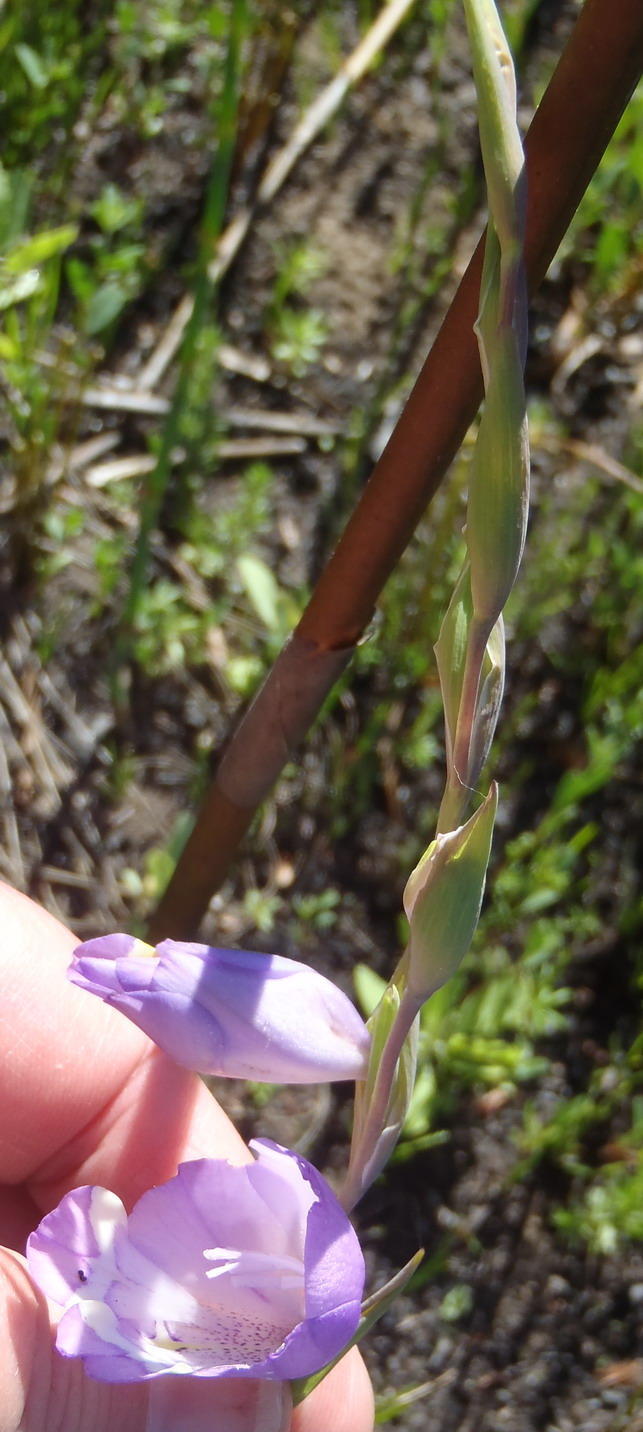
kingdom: Plantae
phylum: Tracheophyta
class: Liliopsida
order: Asparagales
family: Iridaceae
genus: Gladiolus
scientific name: Gladiolus rogersii
